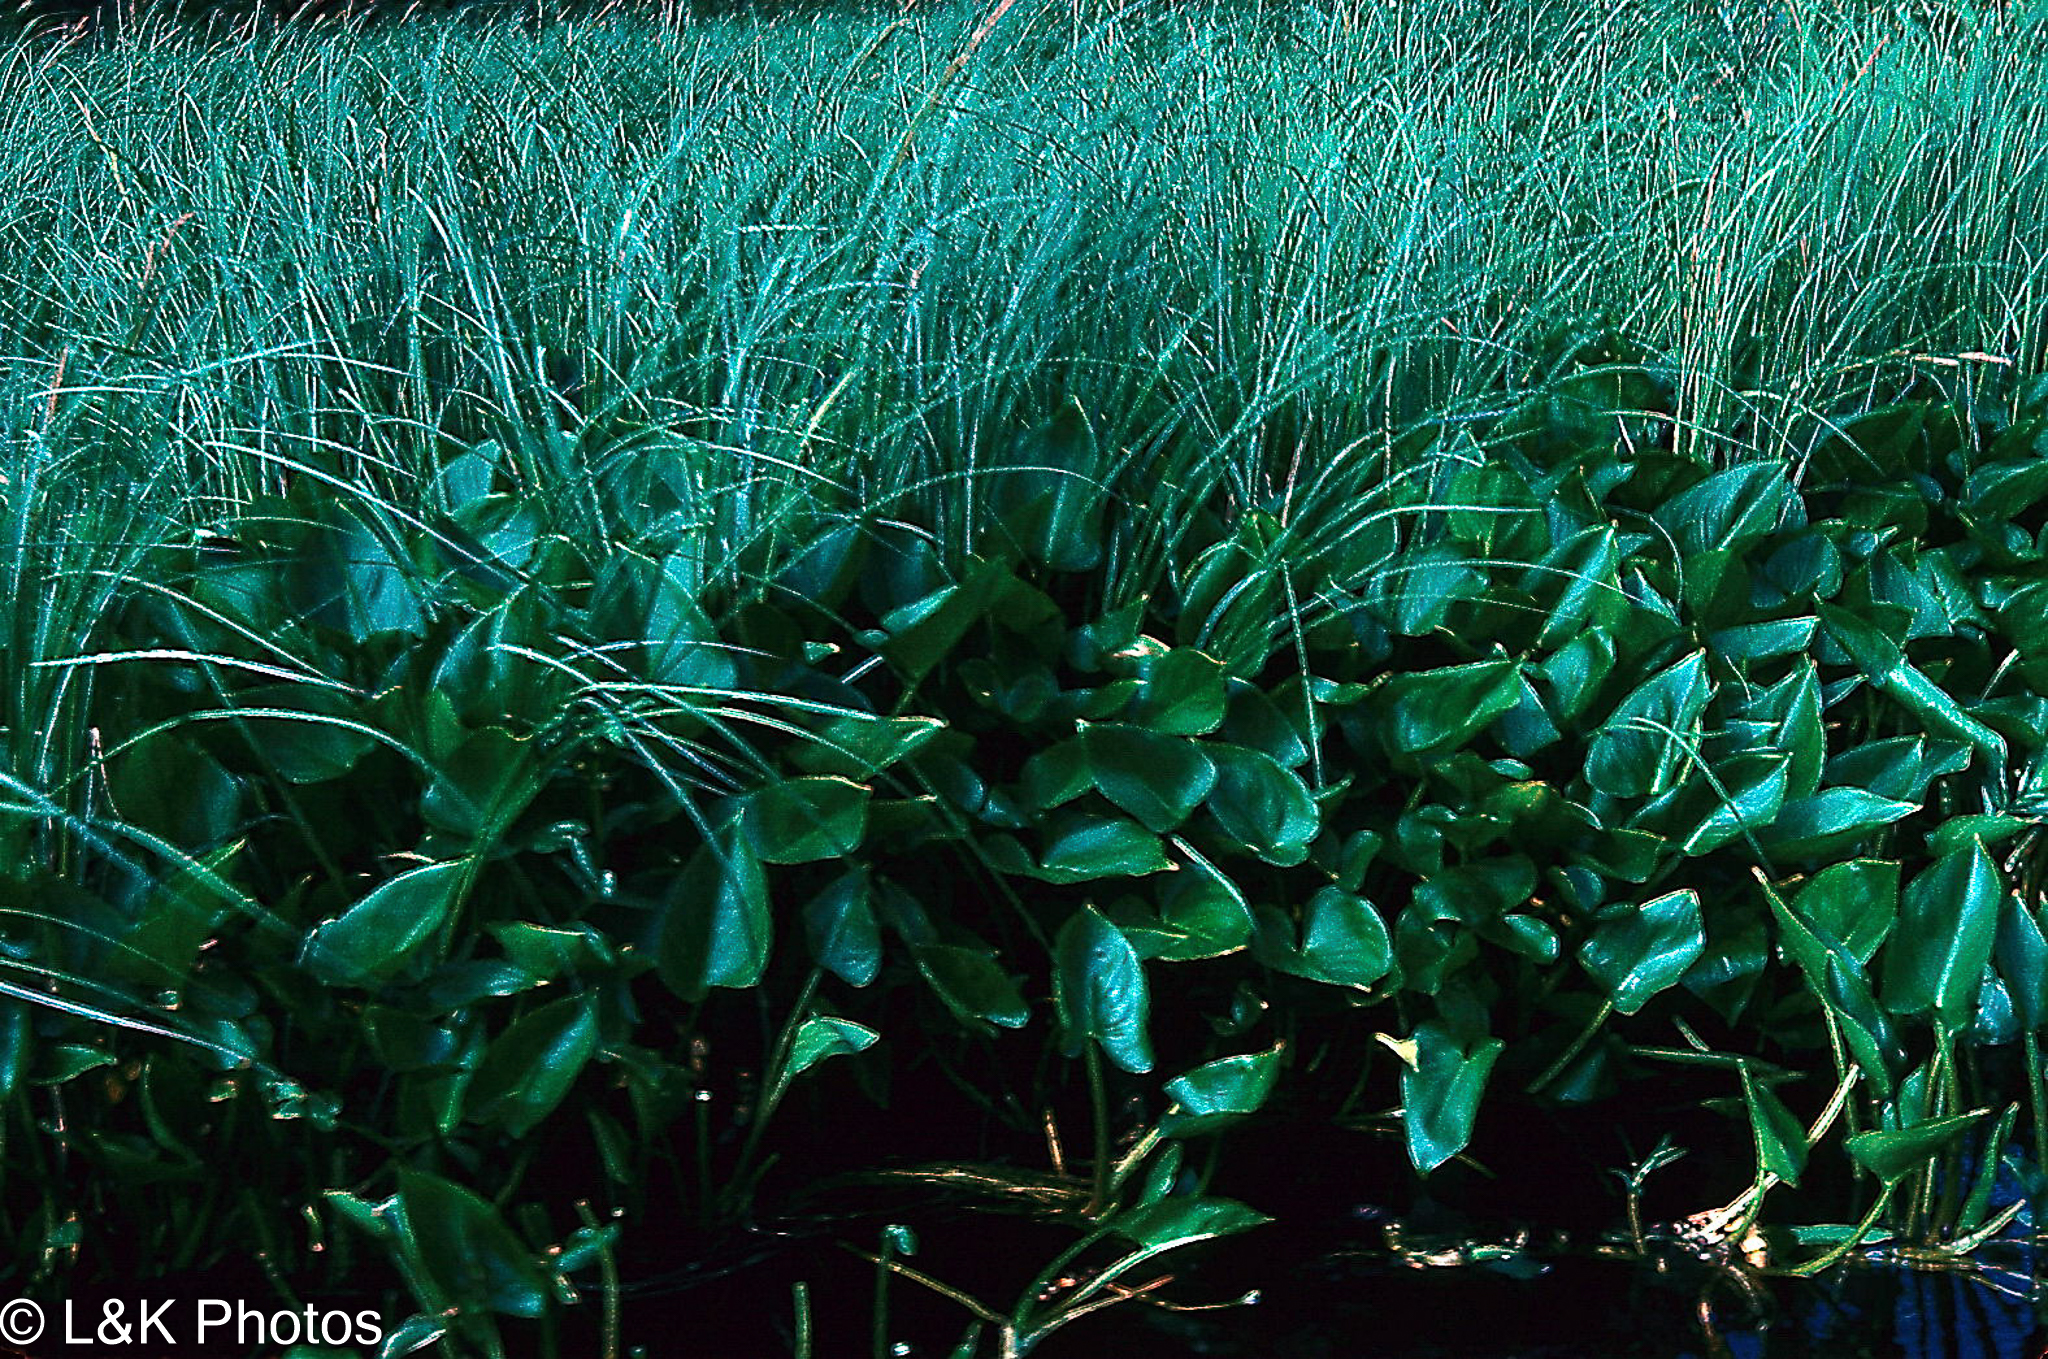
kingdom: Plantae
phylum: Tracheophyta
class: Liliopsida
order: Alismatales
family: Araceae
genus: Calla
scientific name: Calla palustris
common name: Bog arum
